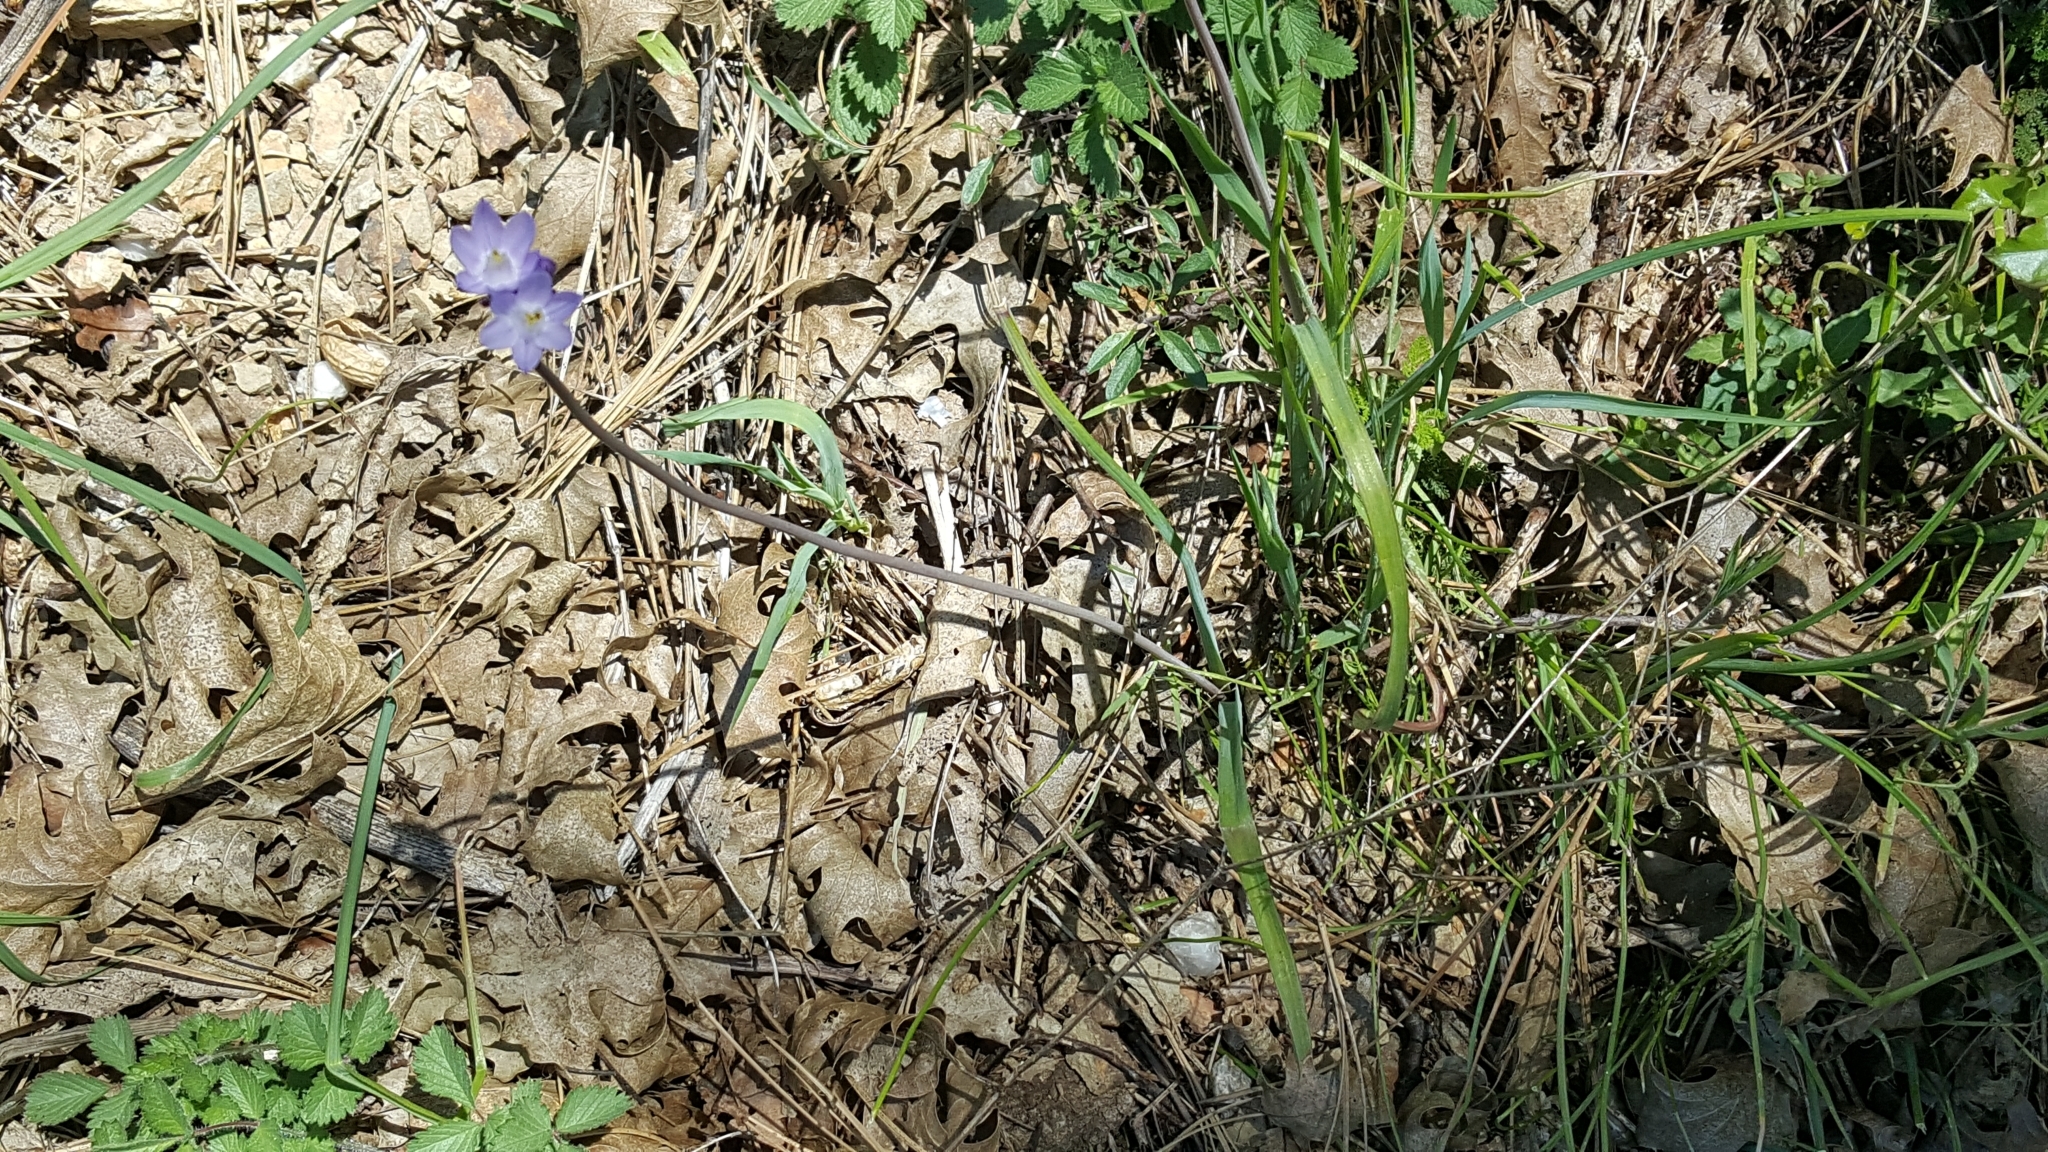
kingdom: Plantae
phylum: Tracheophyta
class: Liliopsida
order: Asparagales
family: Asparagaceae
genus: Dipterostemon
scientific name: Dipterostemon capitatus
